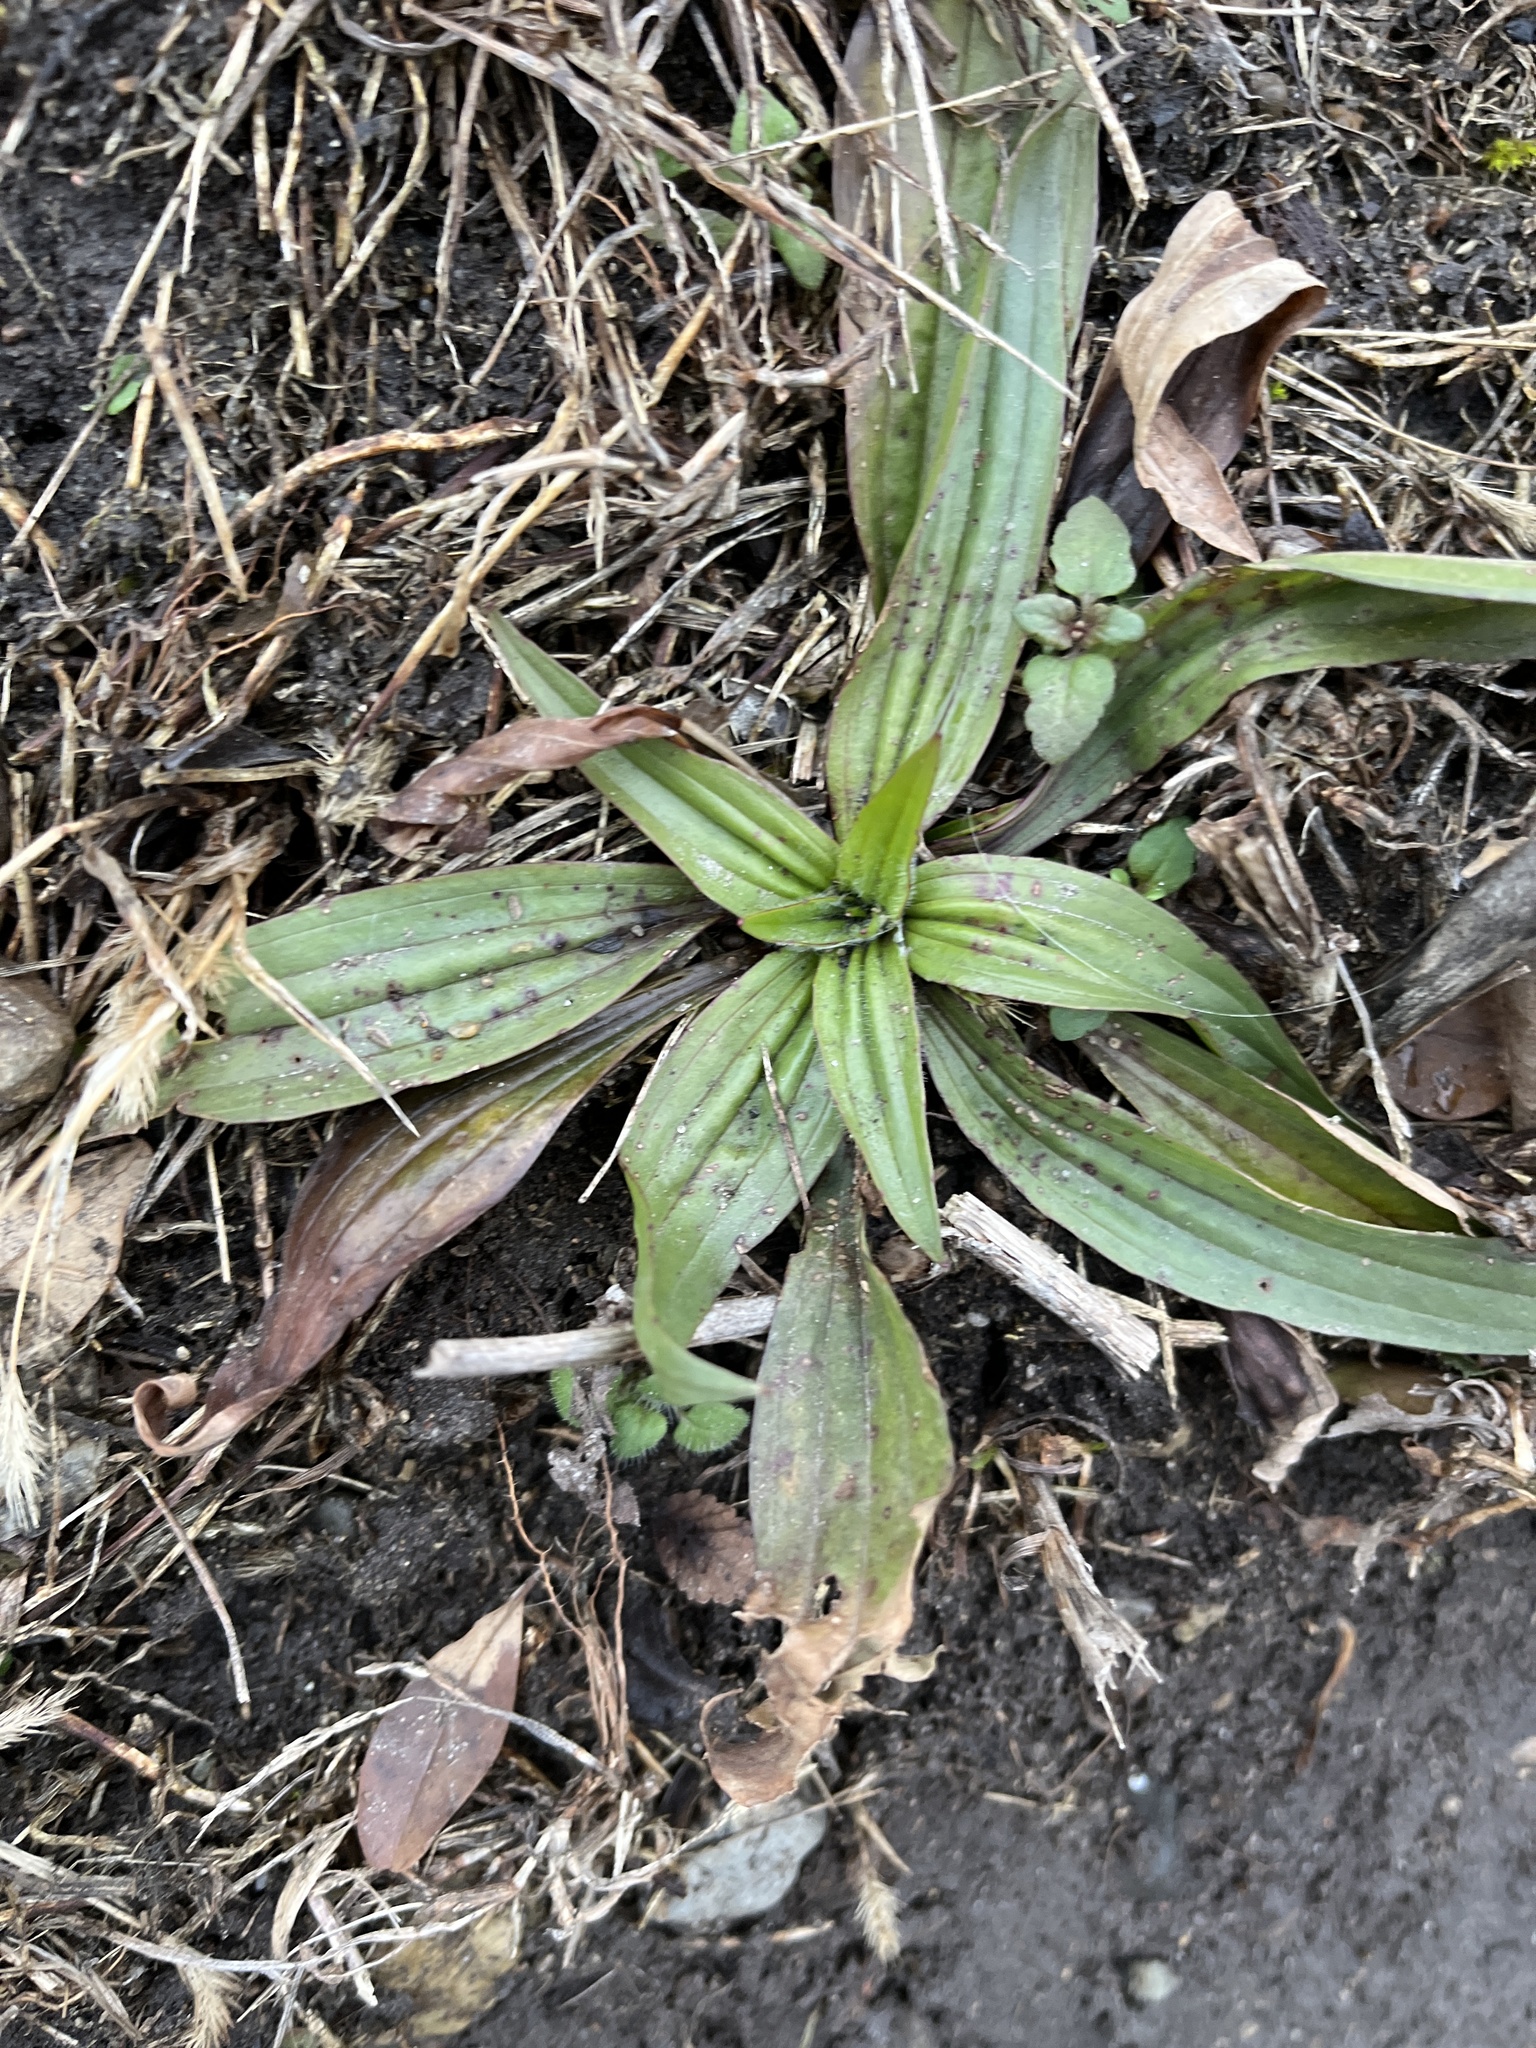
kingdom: Plantae
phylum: Tracheophyta
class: Magnoliopsida
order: Lamiales
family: Plantaginaceae
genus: Plantago
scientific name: Plantago lanceolata
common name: Ribwort plantain
